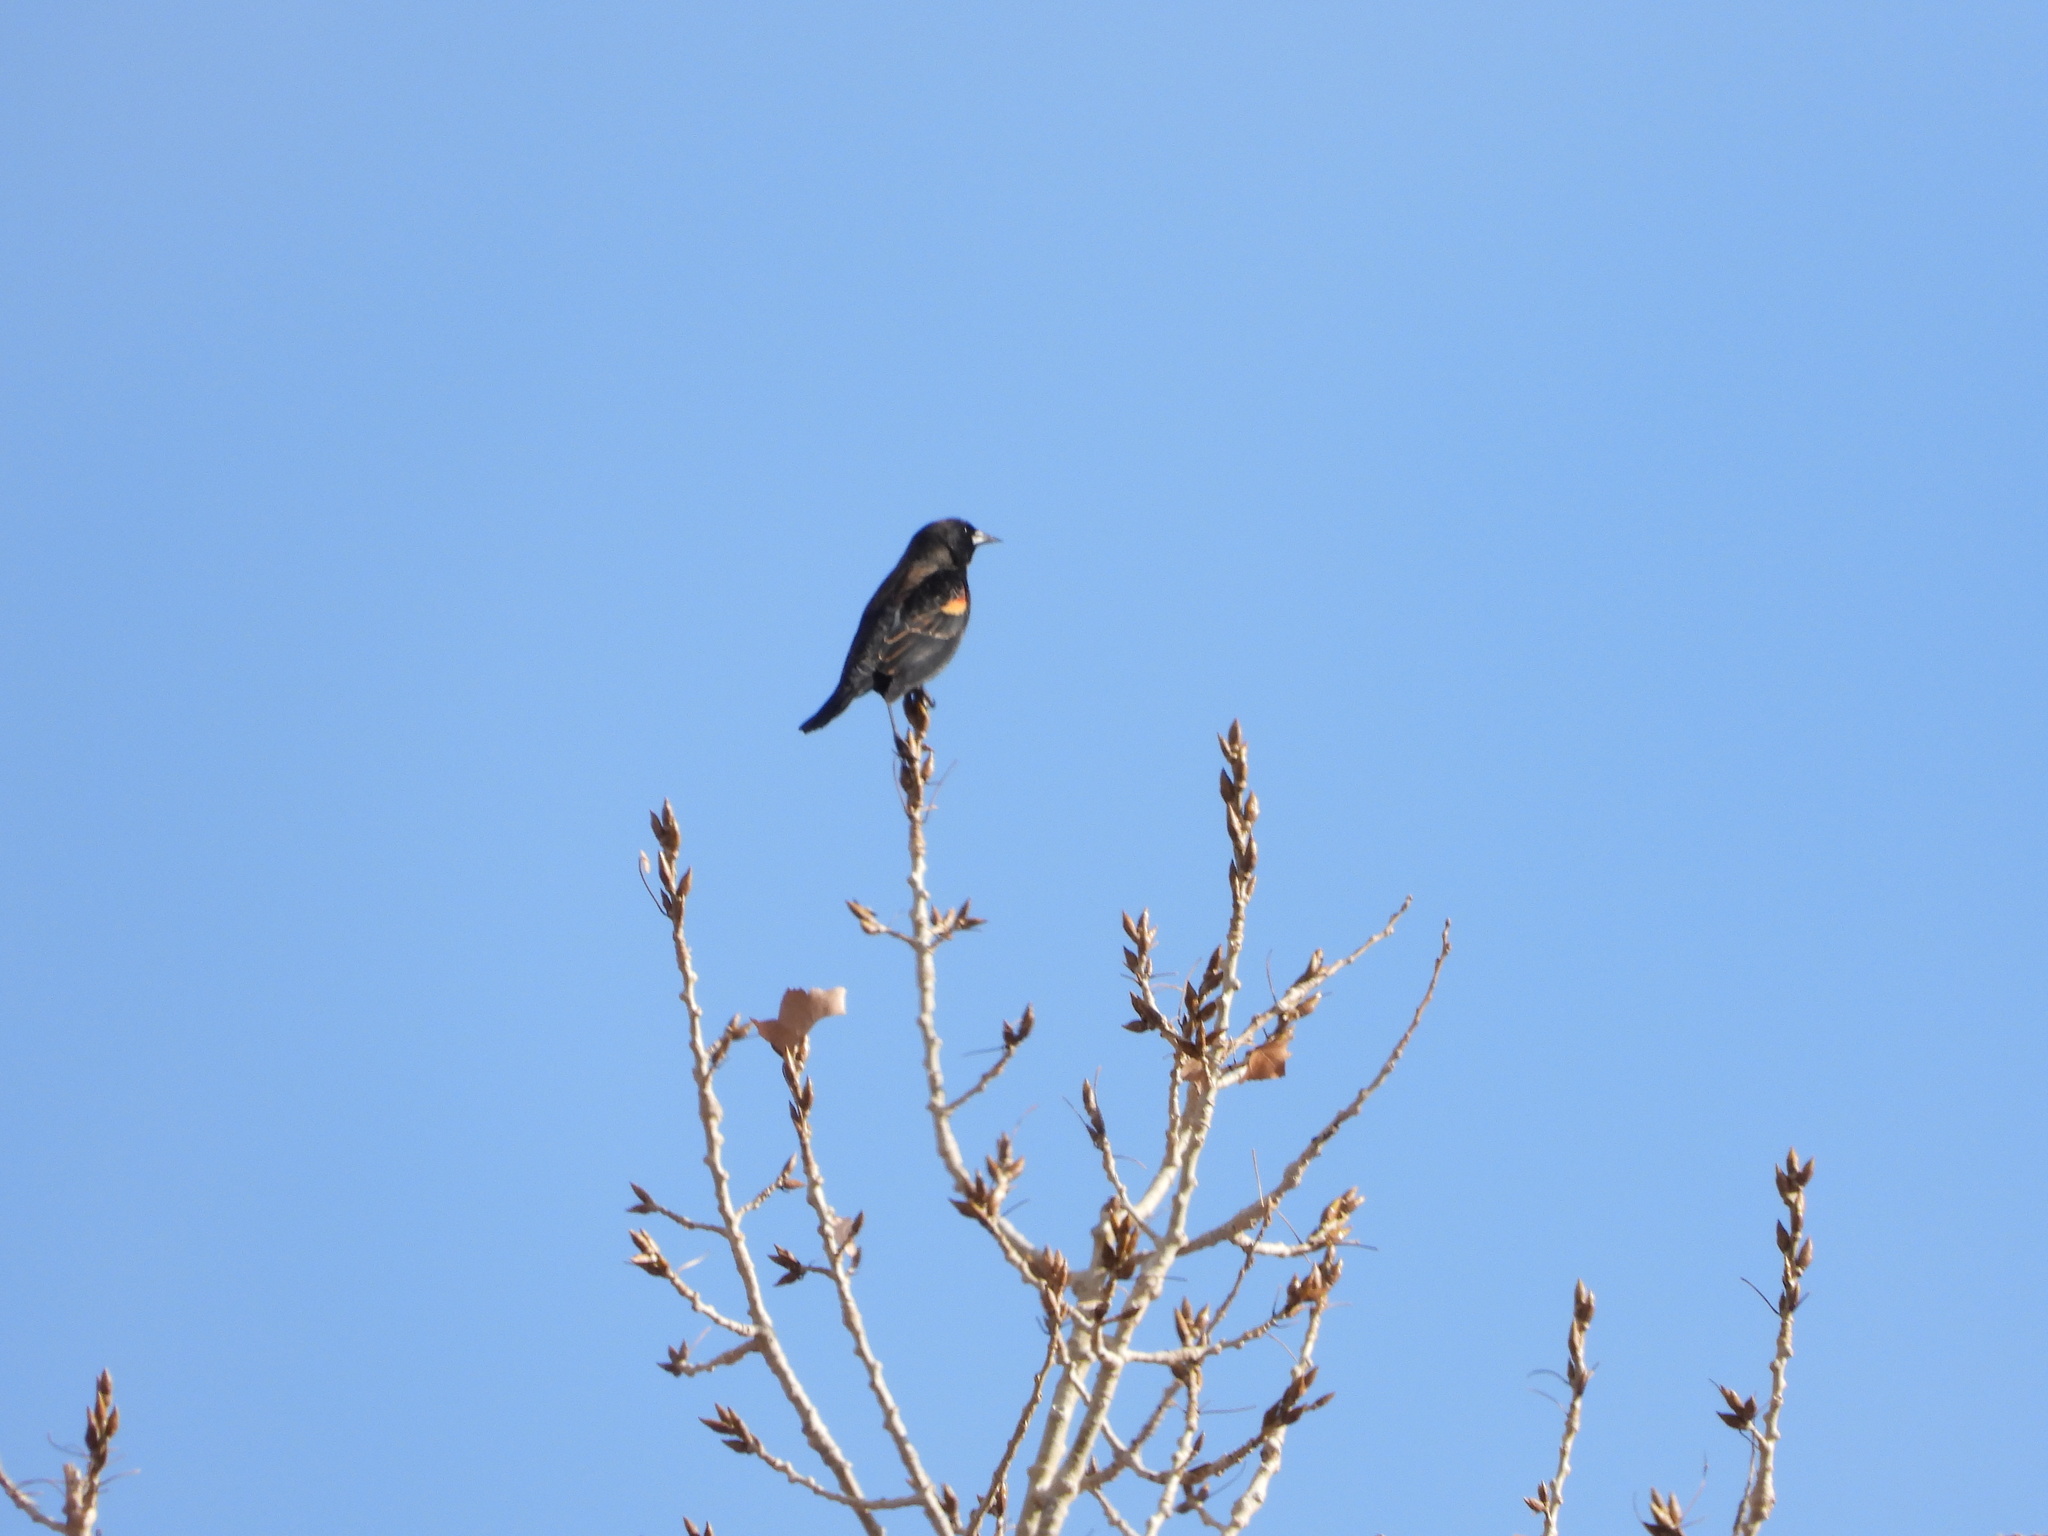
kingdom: Animalia
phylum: Chordata
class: Aves
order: Passeriformes
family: Icteridae
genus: Agelaius
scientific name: Agelaius phoeniceus
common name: Red-winged blackbird
